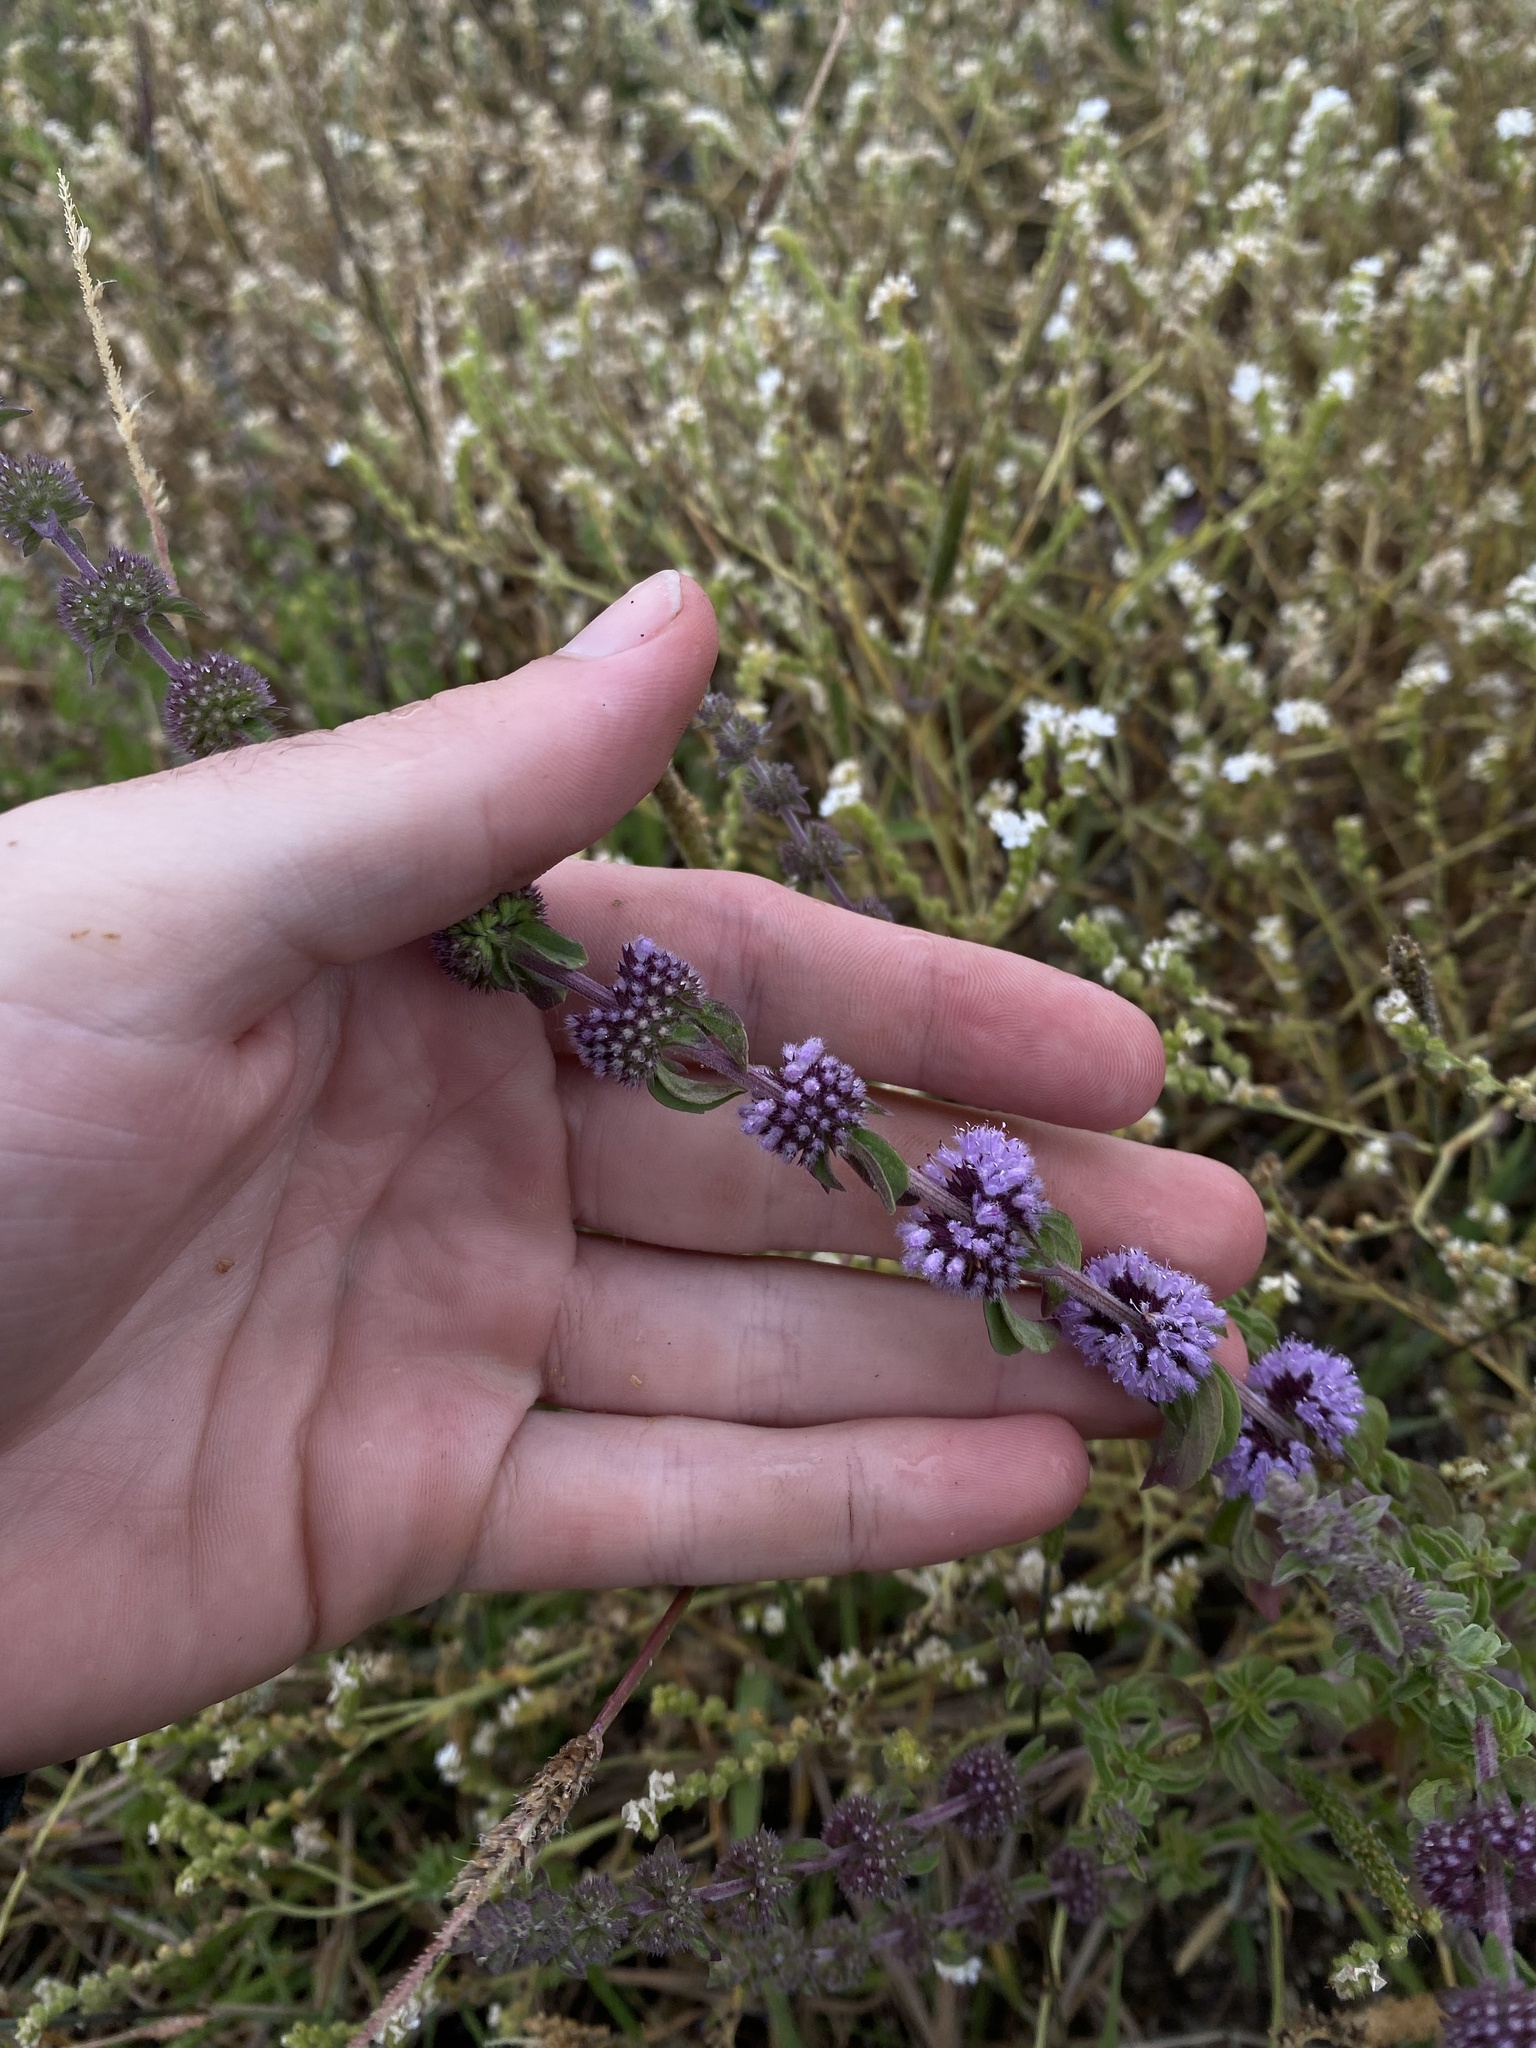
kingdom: Plantae
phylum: Tracheophyta
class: Magnoliopsida
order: Lamiales
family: Lamiaceae
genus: Mentha
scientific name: Mentha pulegium
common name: Pennyroyal
